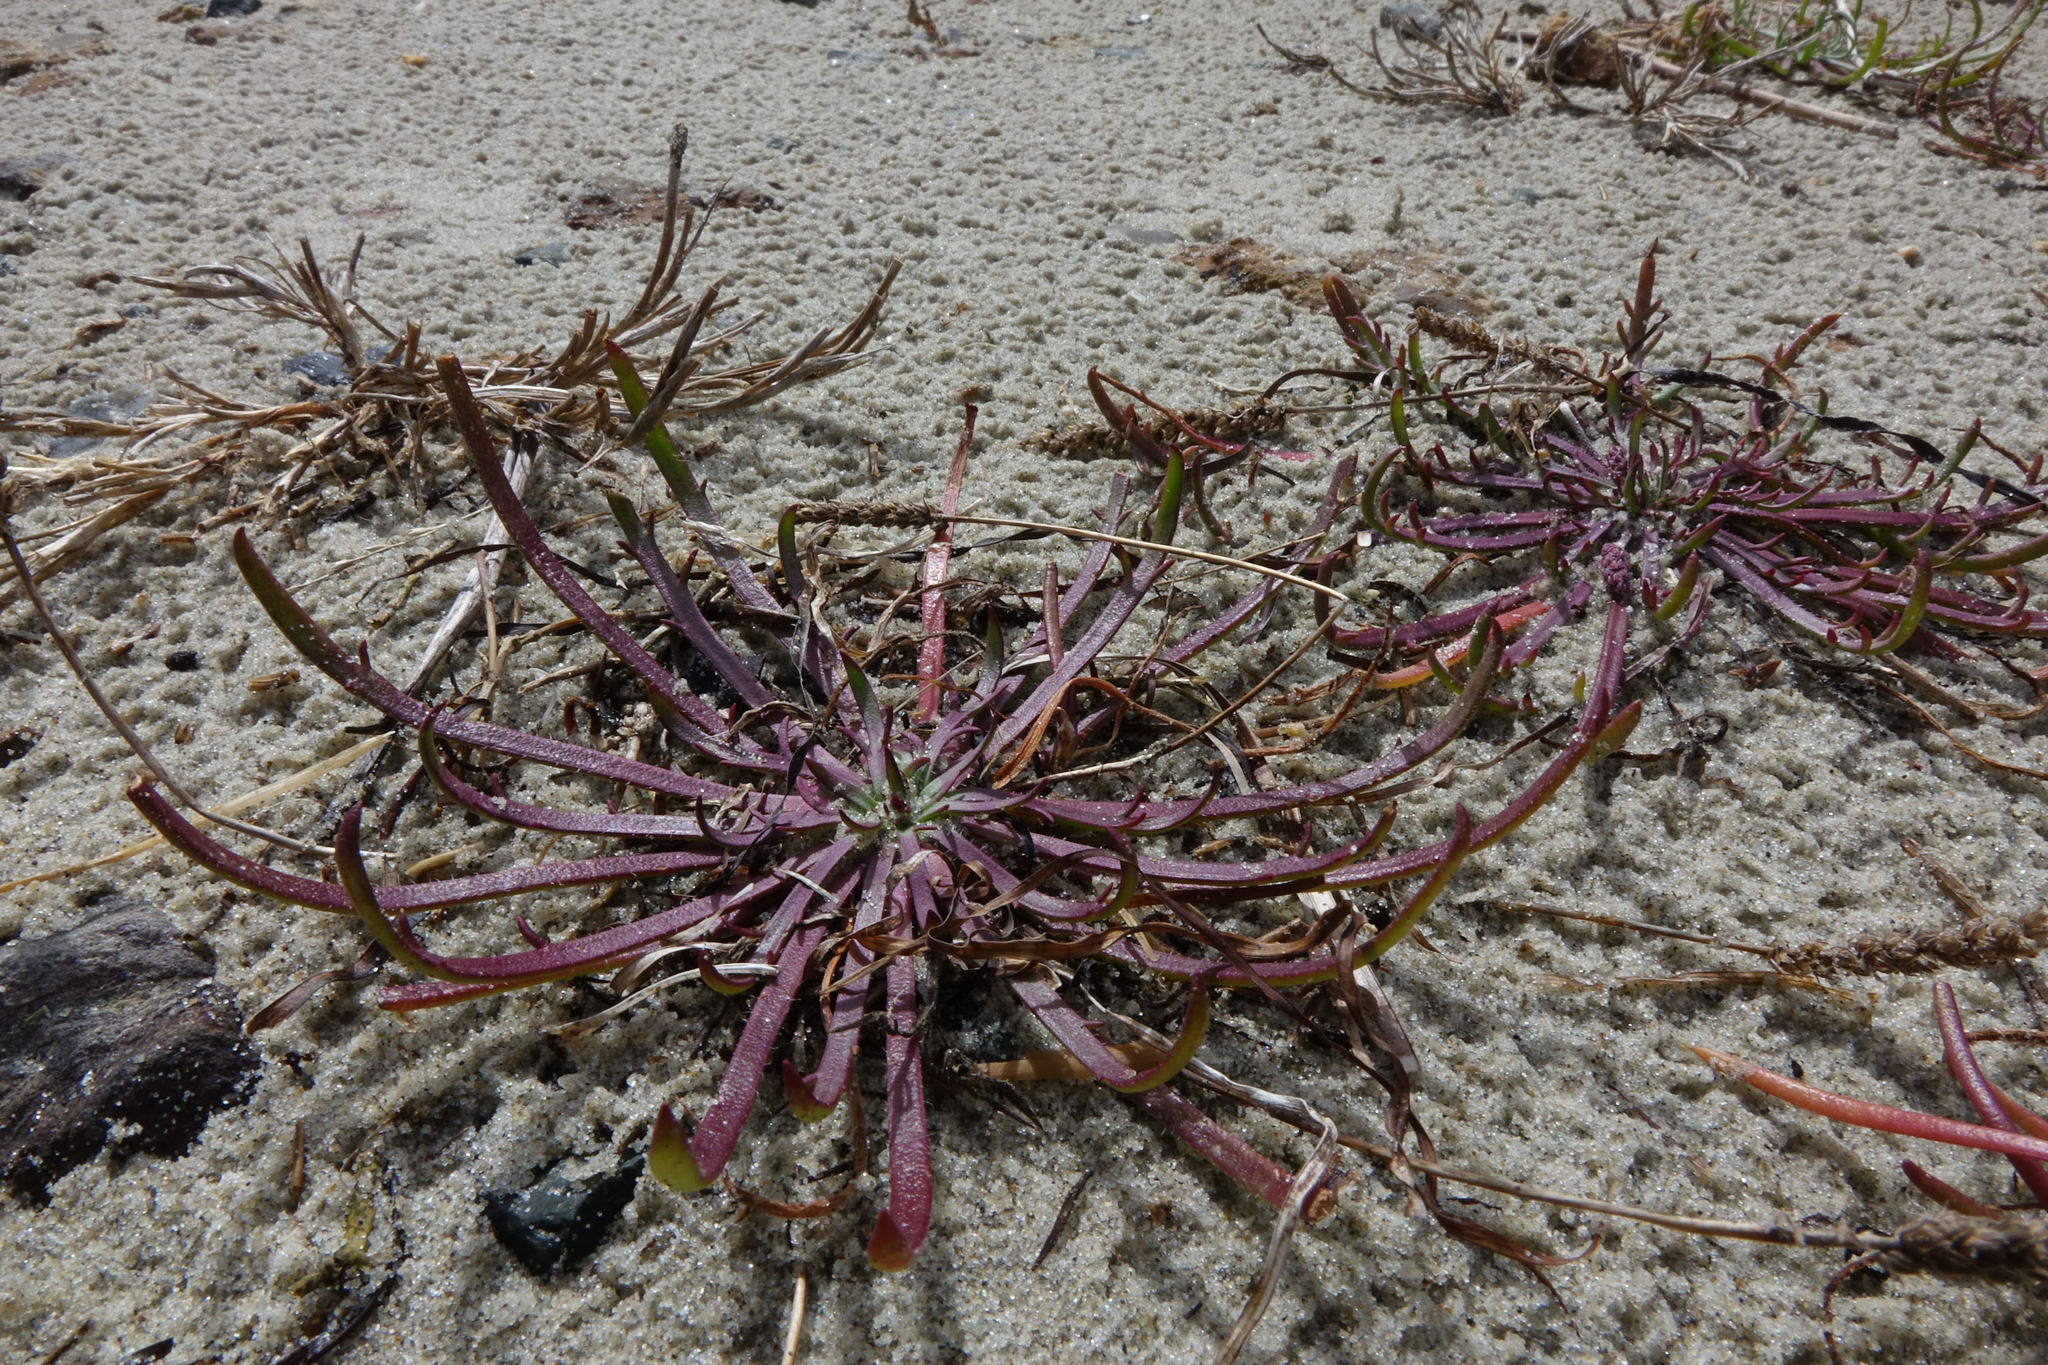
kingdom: Plantae
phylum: Tracheophyta
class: Magnoliopsida
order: Lamiales
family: Plantaginaceae
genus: Plantago
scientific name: Plantago coronopus
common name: Buck's-horn plantain
